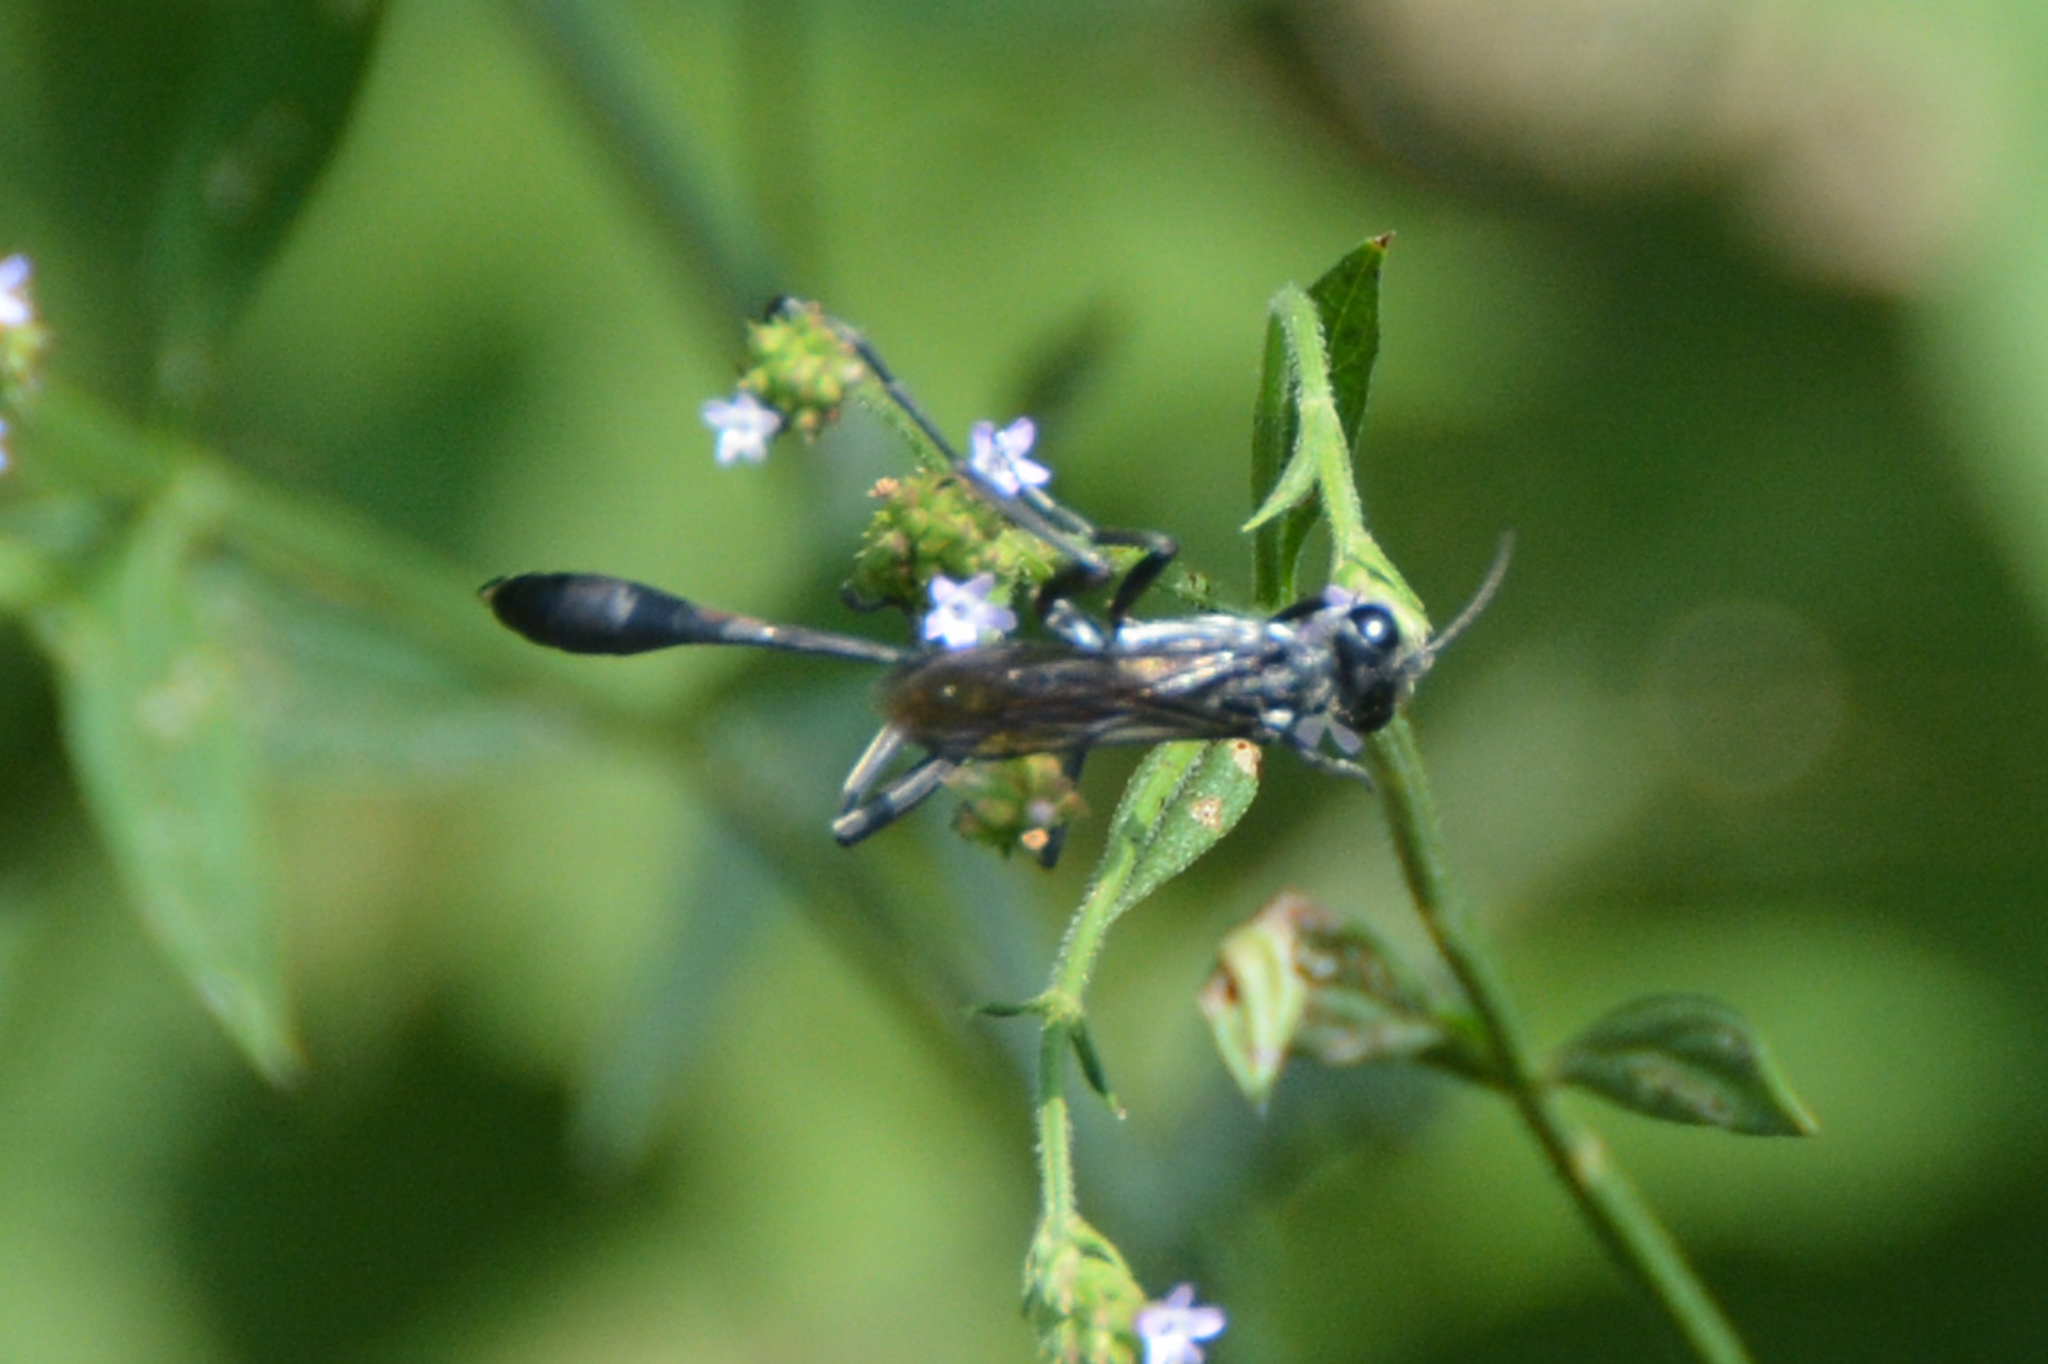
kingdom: Animalia
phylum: Arthropoda
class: Insecta
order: Hymenoptera
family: Sphecidae
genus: Eremnophila
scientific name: Eremnophila aureonotata
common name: Gold-marked thread-waisted wasp
